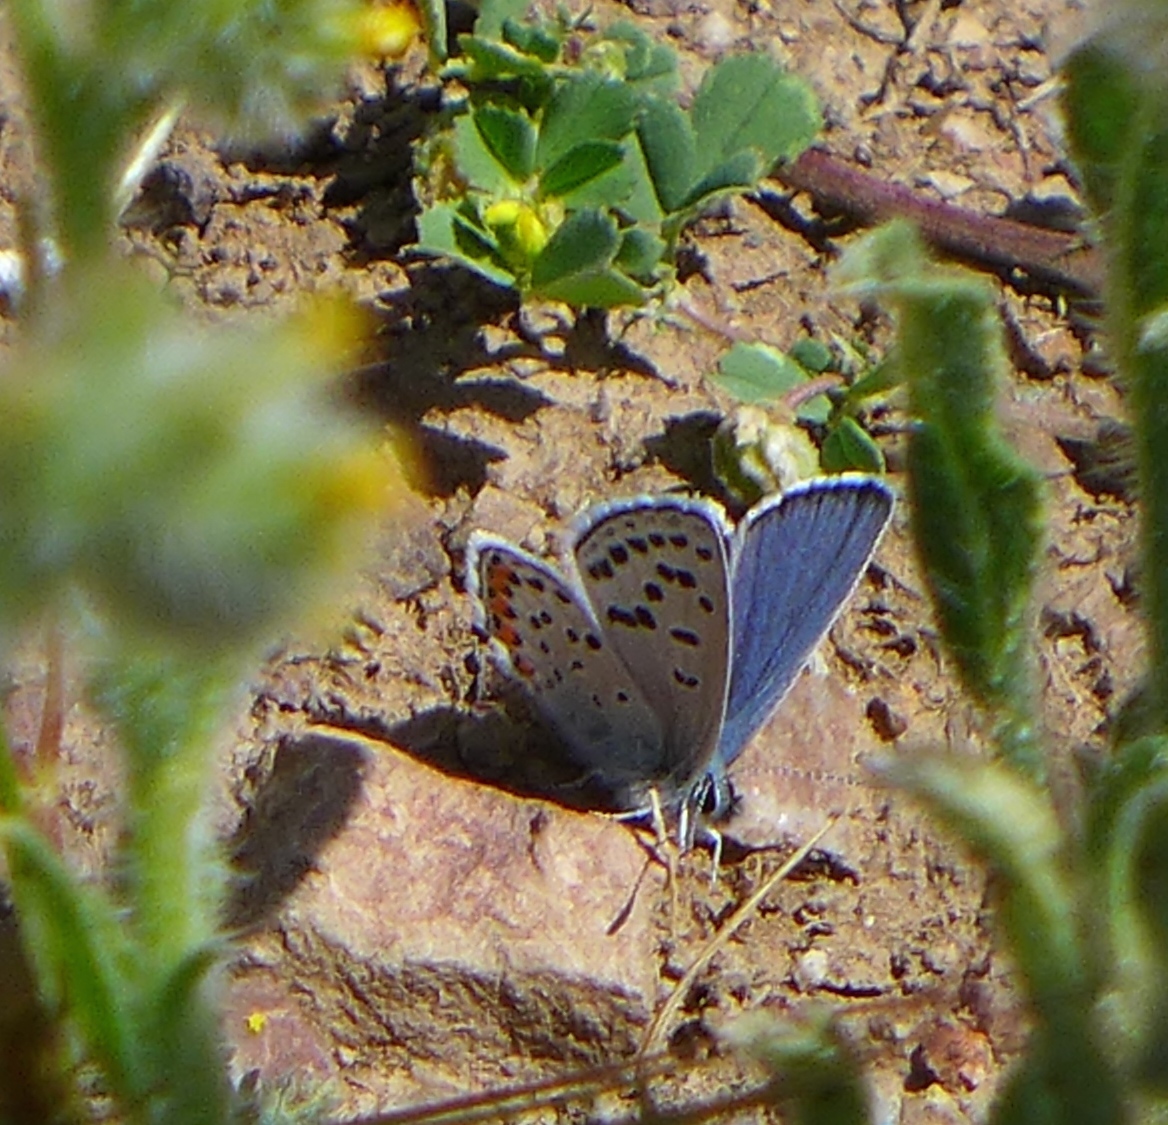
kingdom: Animalia
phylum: Arthropoda
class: Insecta
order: Lepidoptera
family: Lycaenidae
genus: Icaricia
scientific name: Icaricia acmon
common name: Acmon blue
